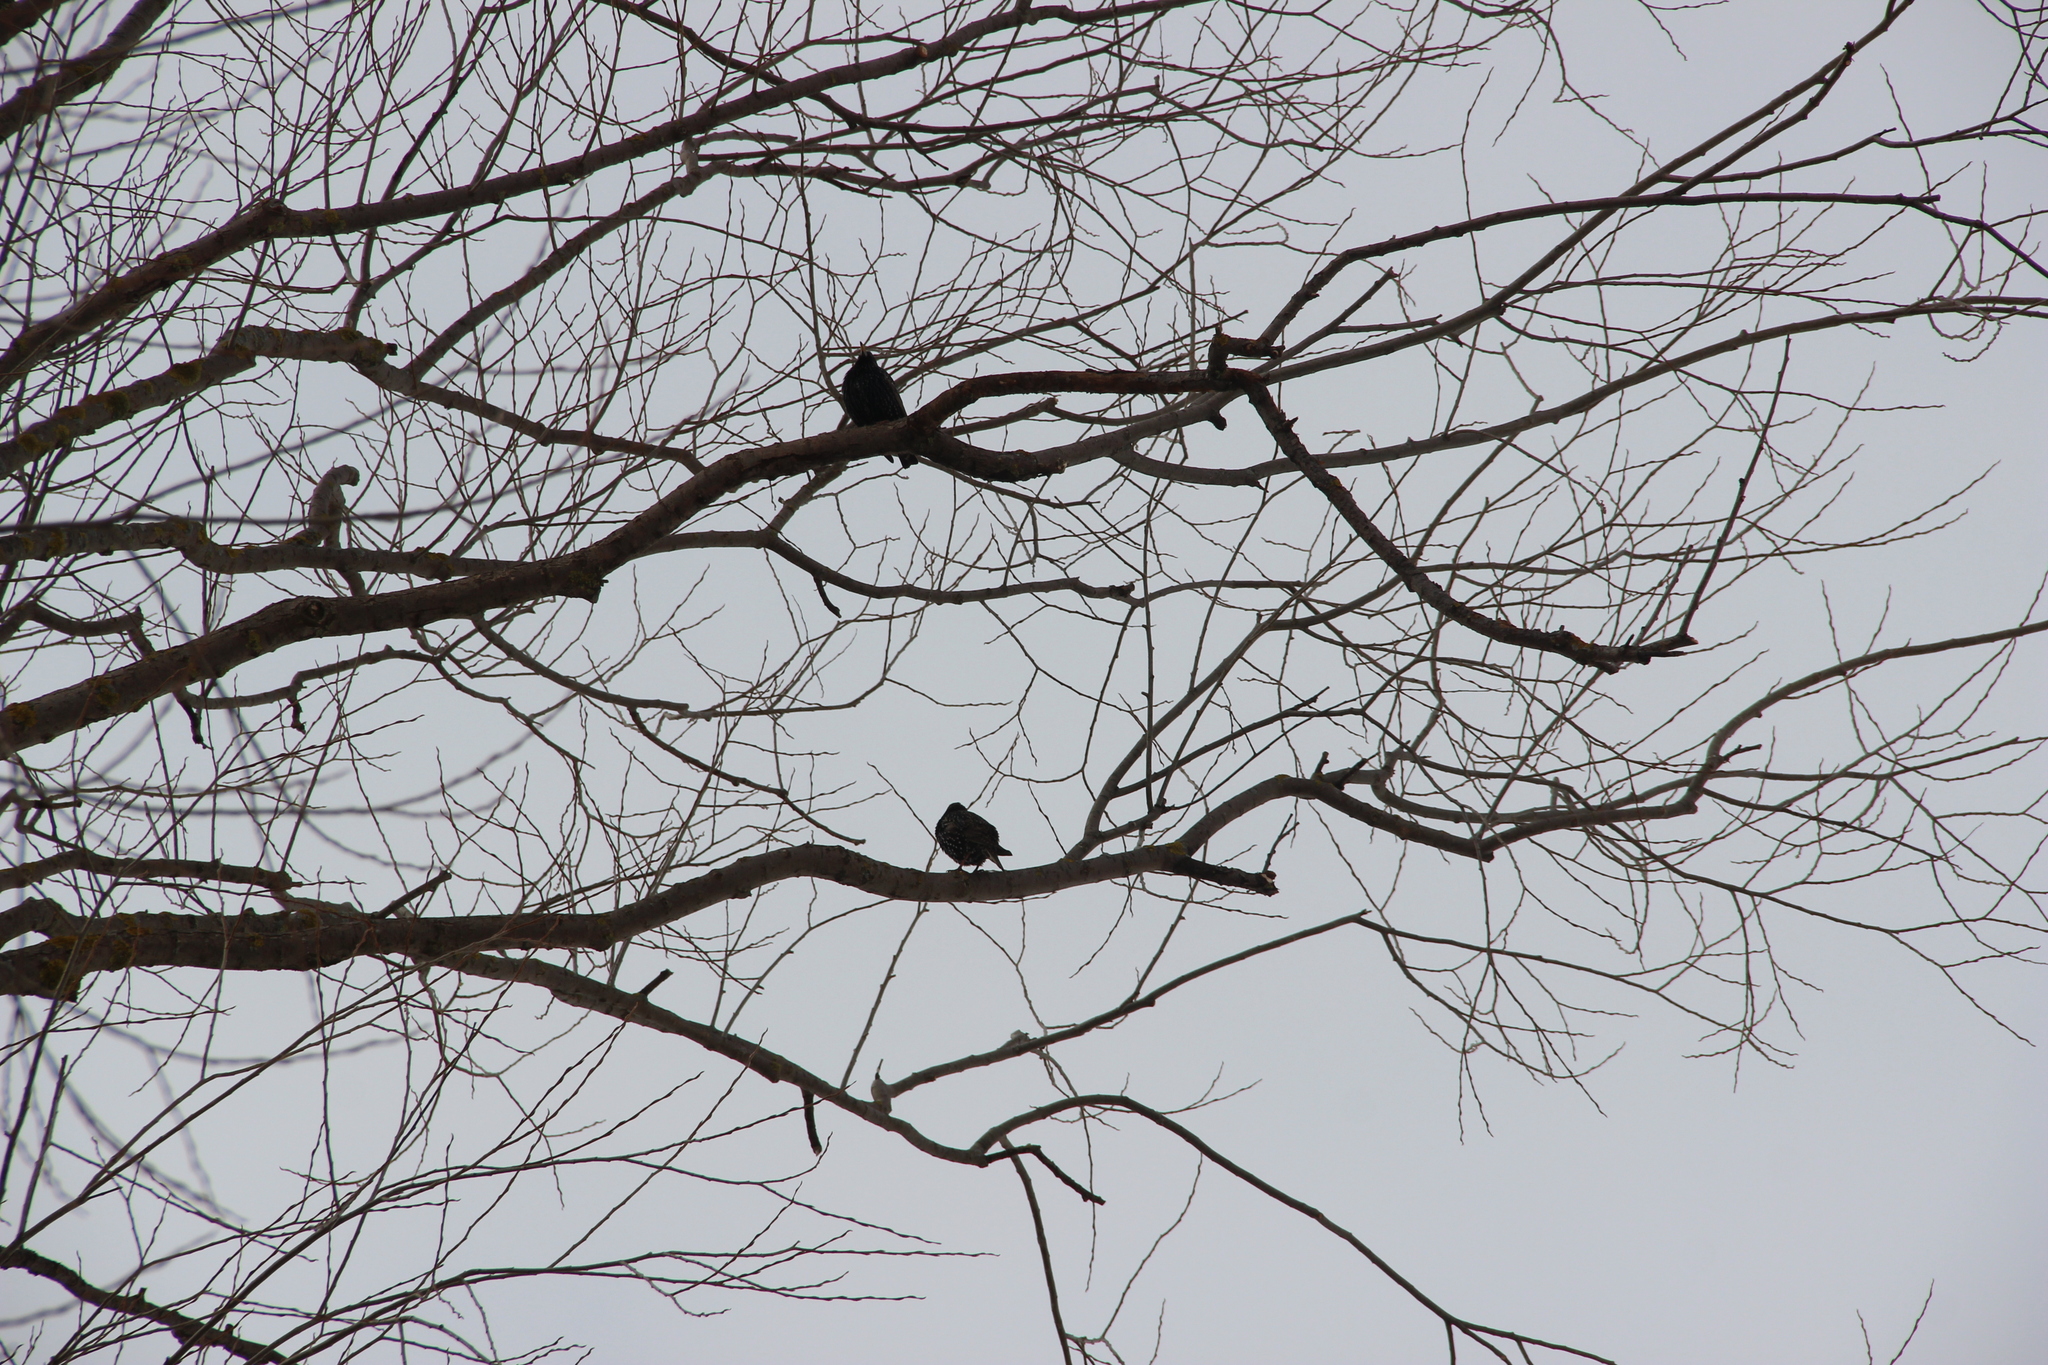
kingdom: Animalia
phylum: Chordata
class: Aves
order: Passeriformes
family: Sturnidae
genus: Sturnus
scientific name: Sturnus vulgaris
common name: Common starling
